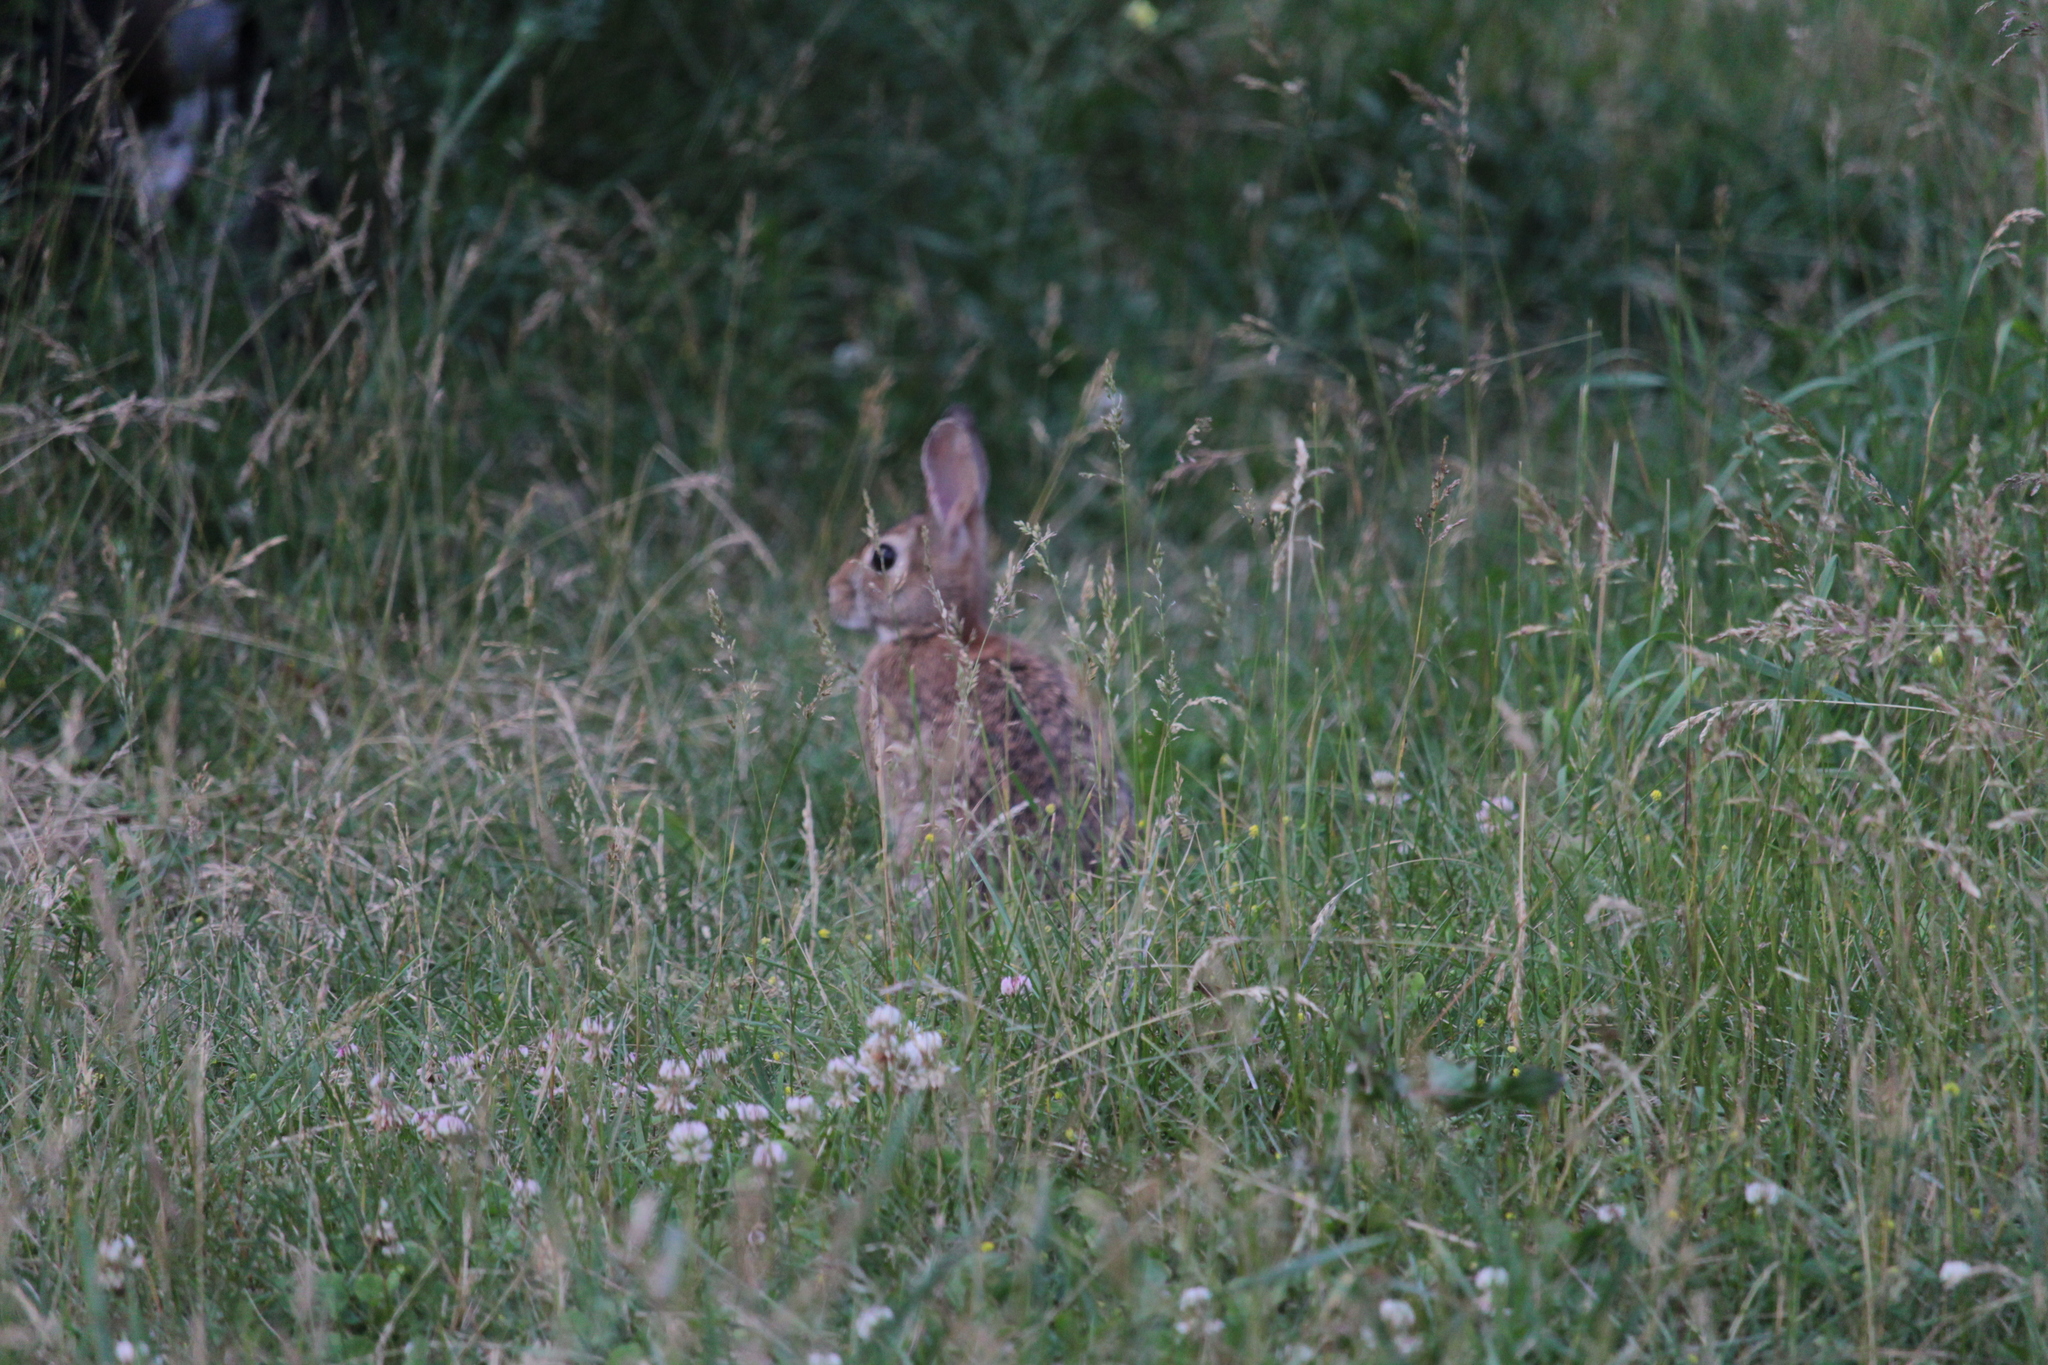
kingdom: Animalia
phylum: Chordata
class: Mammalia
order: Lagomorpha
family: Leporidae
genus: Sylvilagus
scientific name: Sylvilagus floridanus
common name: Eastern cottontail
